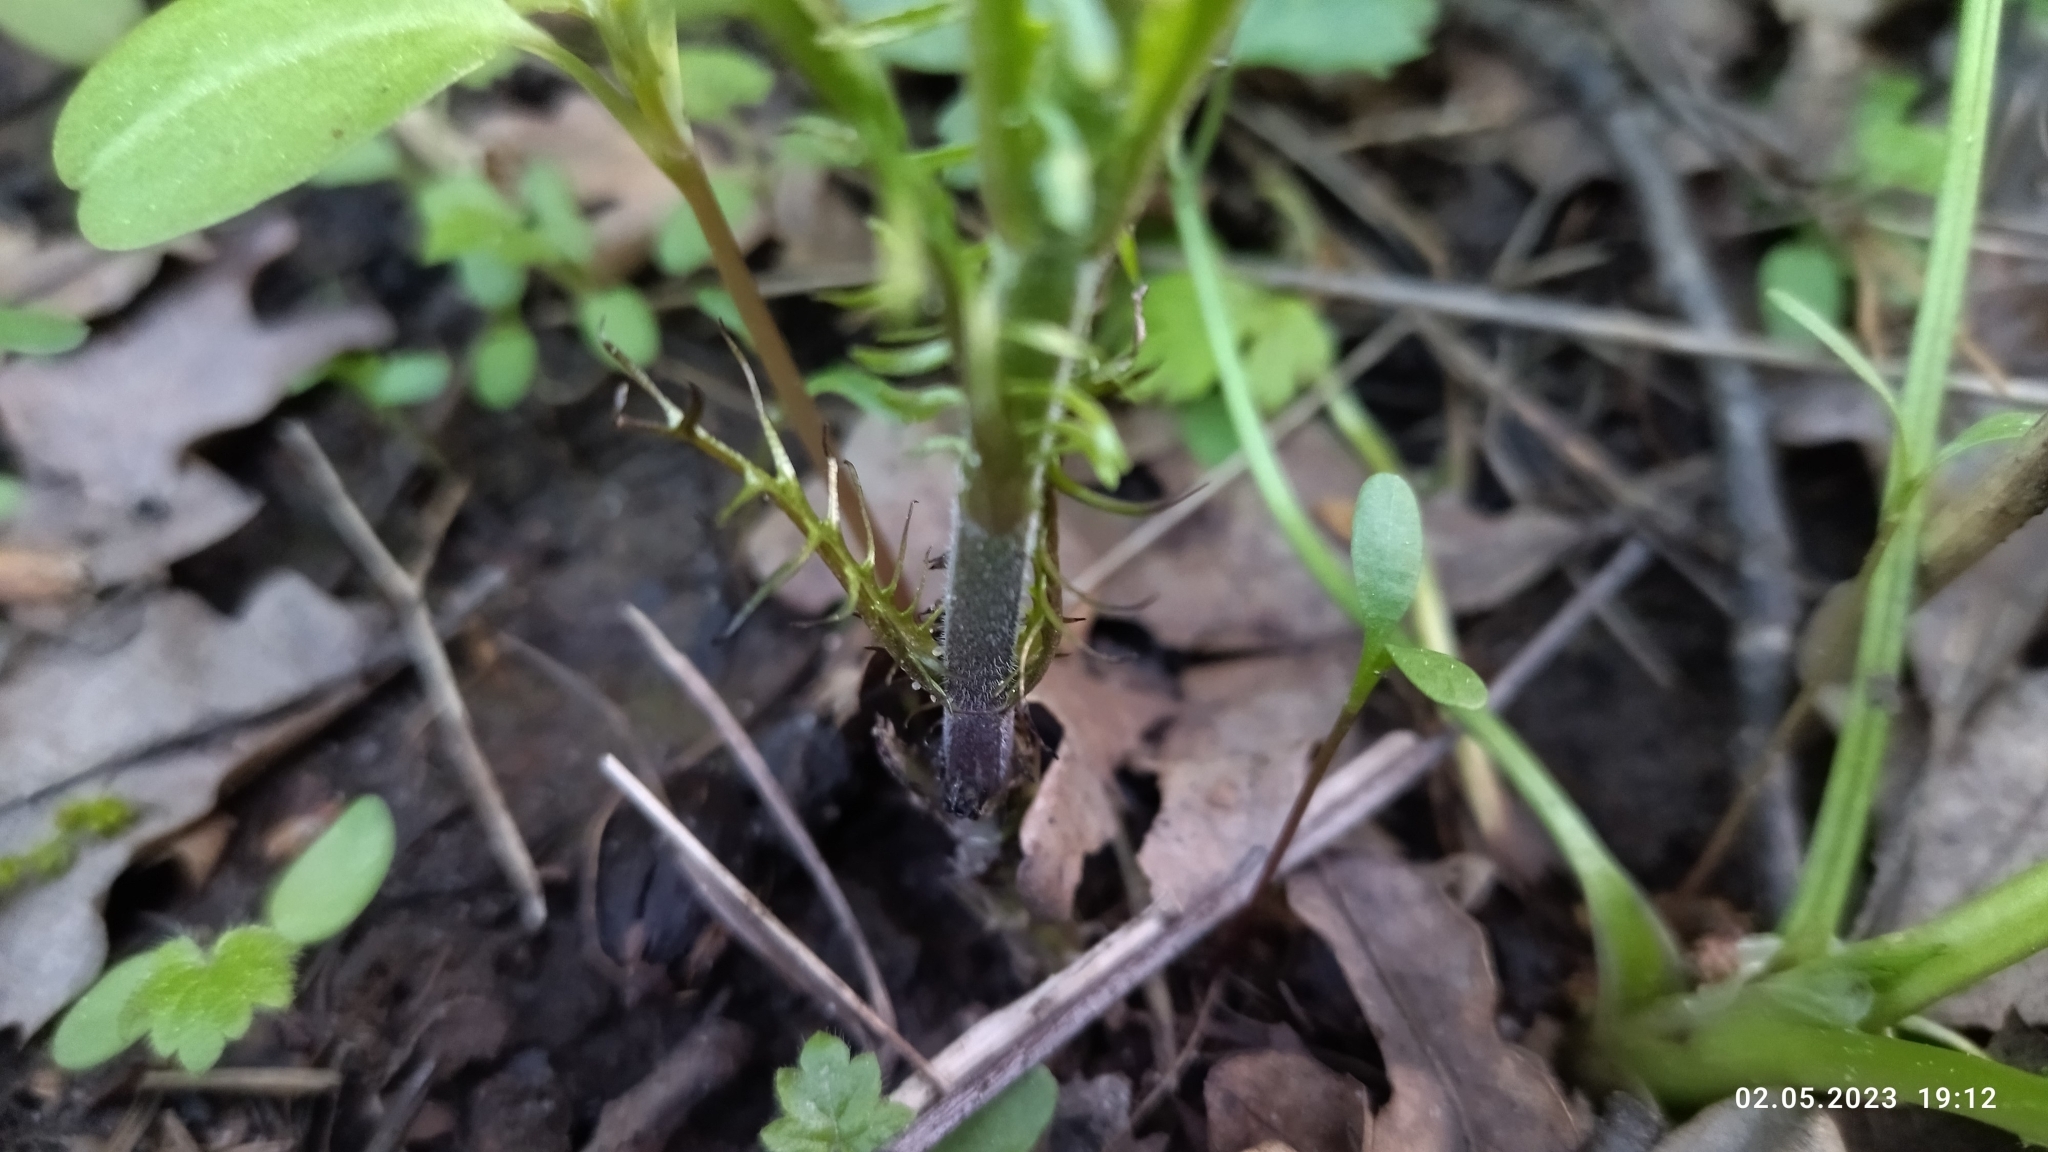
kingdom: Plantae
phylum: Tracheophyta
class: Magnoliopsida
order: Lamiales
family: Lamiaceae
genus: Lycopus
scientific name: Lycopus europaeus
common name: European bugleweed
